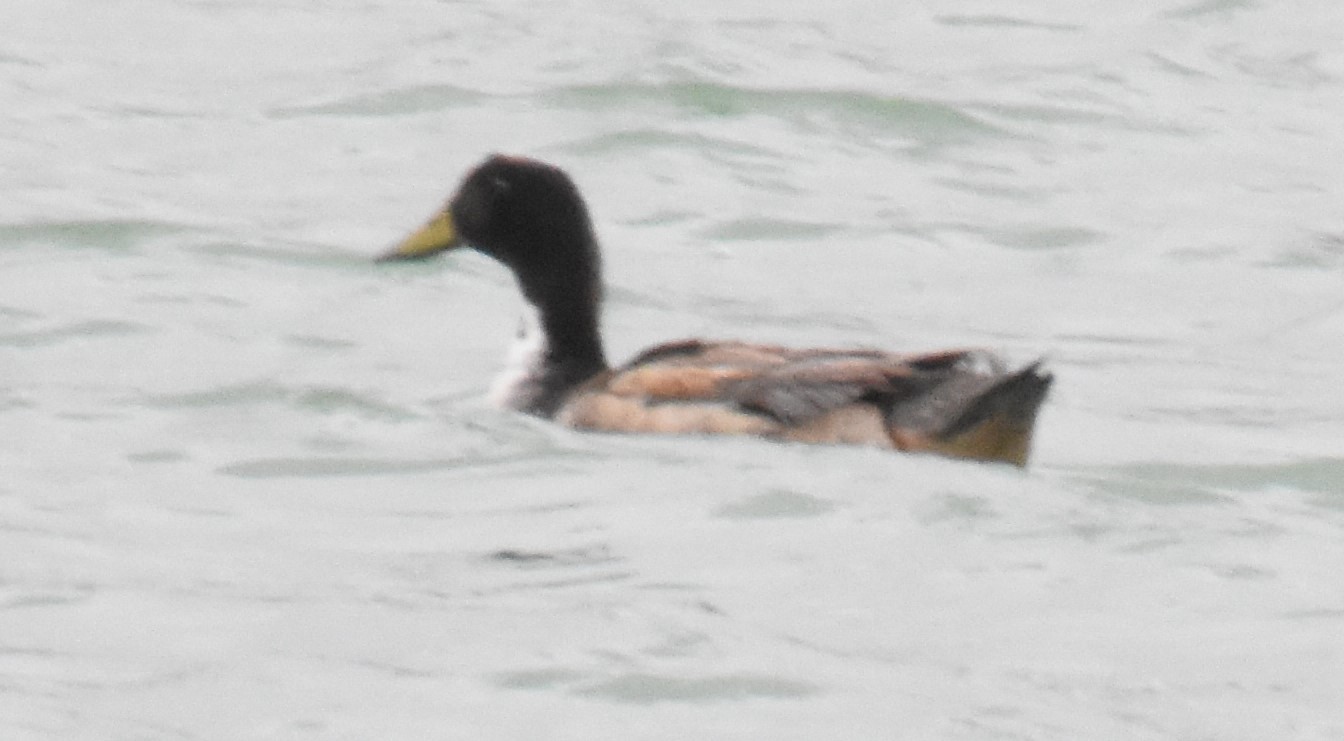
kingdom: Animalia
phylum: Chordata
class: Aves
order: Anseriformes
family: Anatidae
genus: Anas
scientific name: Anas platyrhynchos
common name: Mallard
